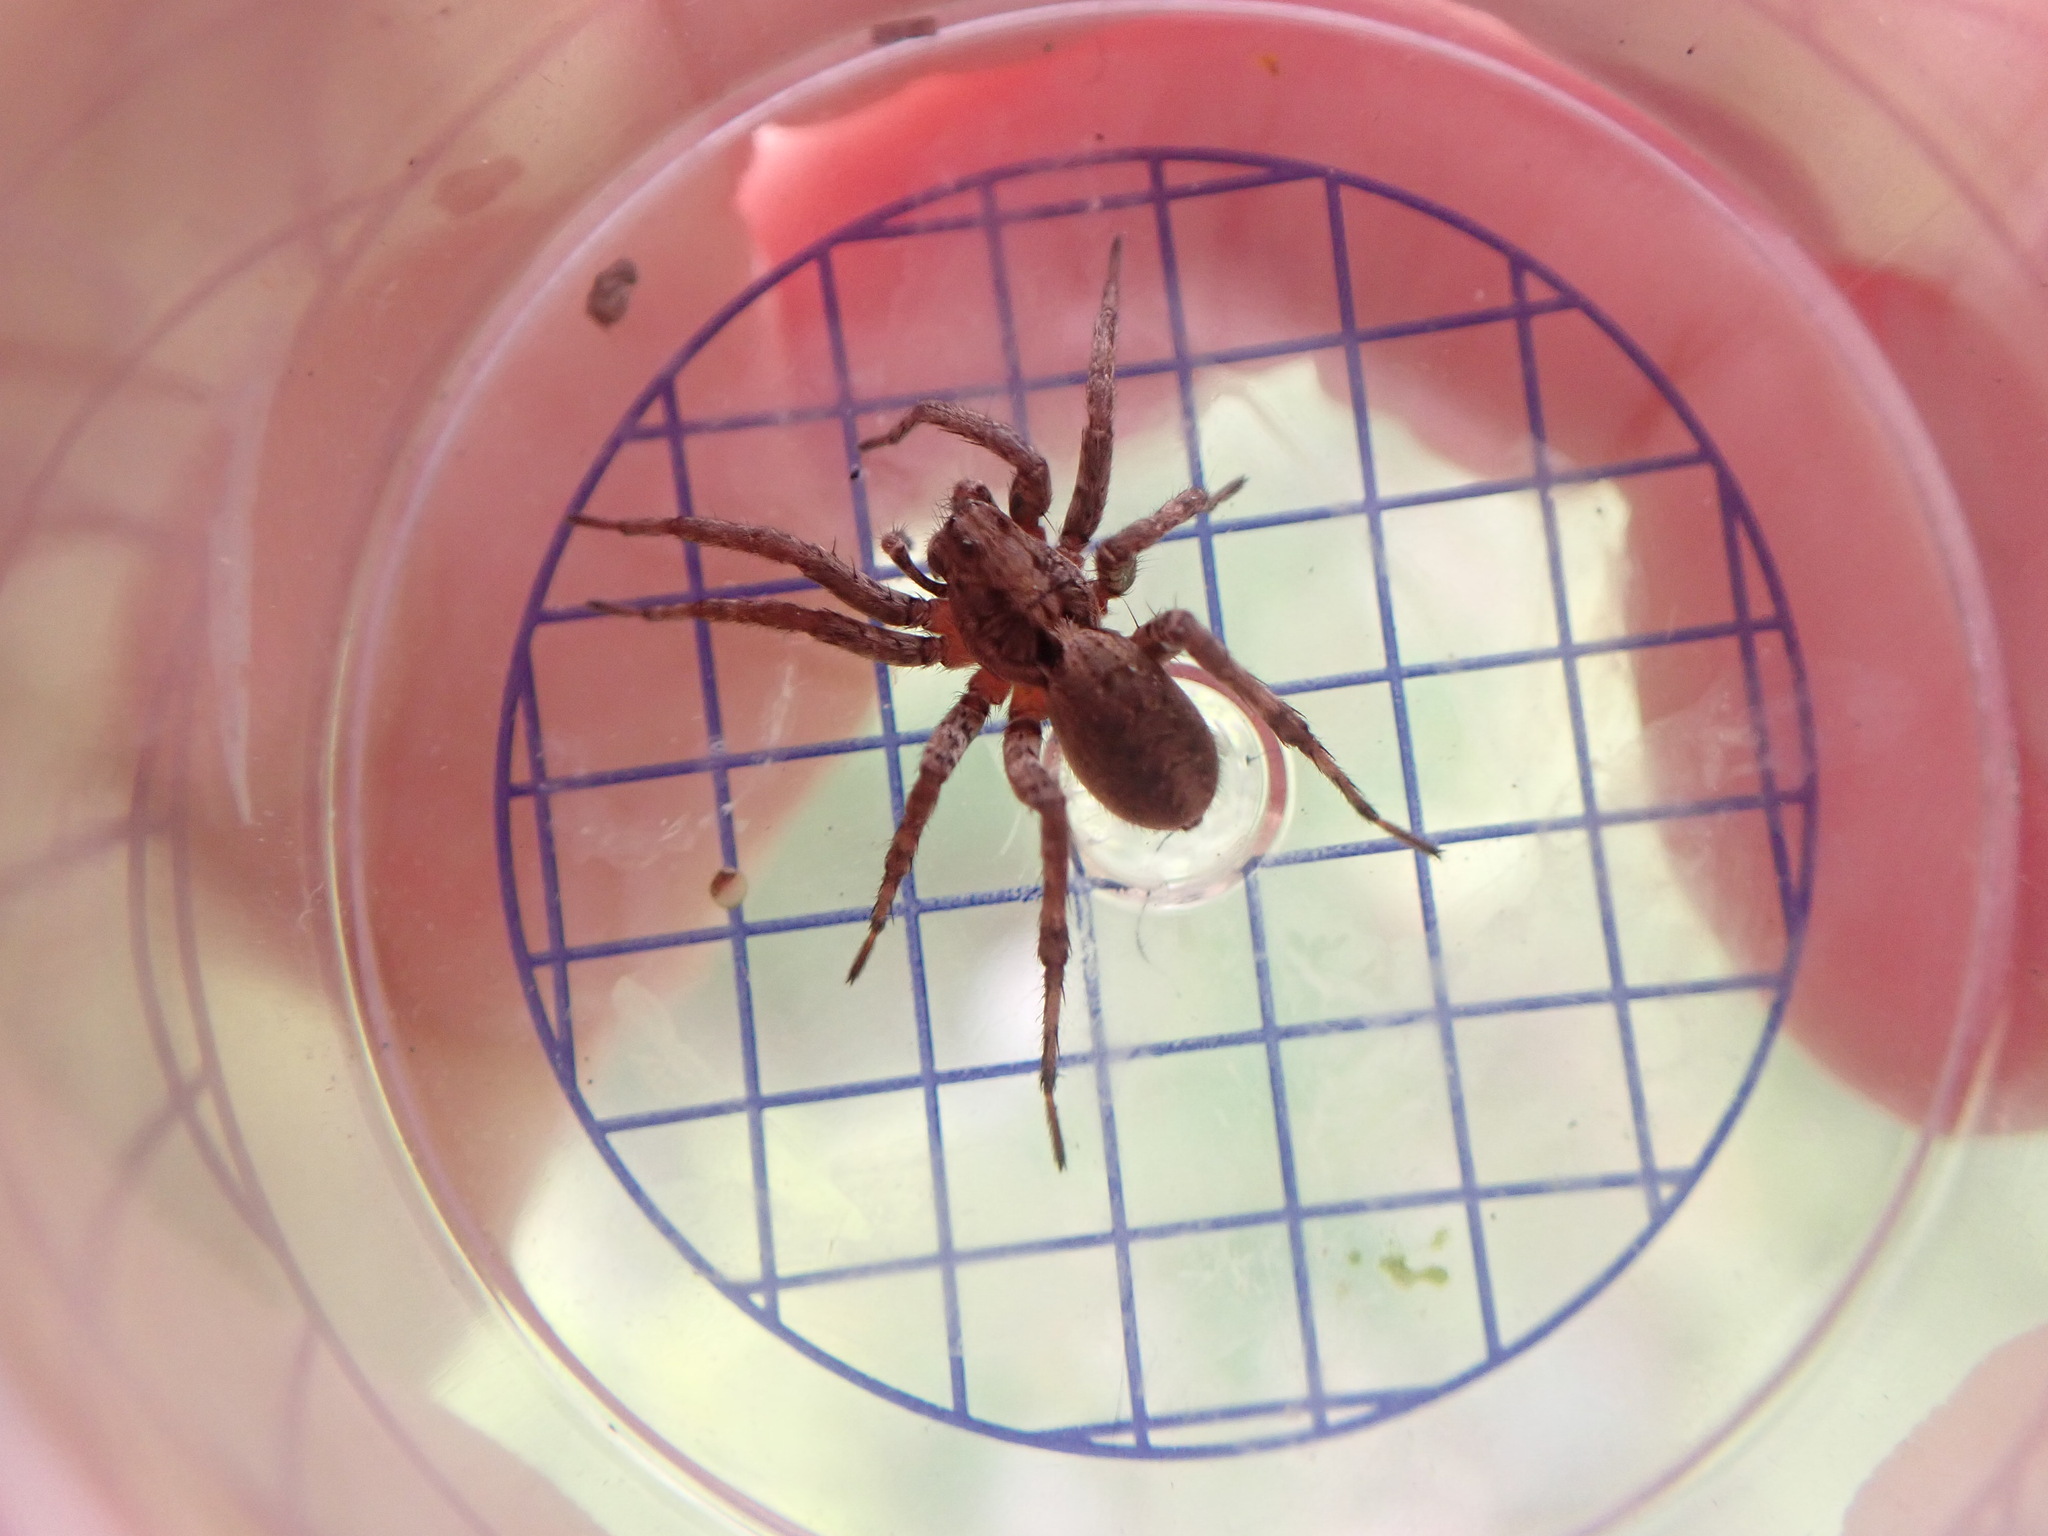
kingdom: Animalia
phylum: Arthropoda
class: Arachnida
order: Araneae
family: Lycosidae
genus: Alopecosa
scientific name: Alopecosa albofasciata
